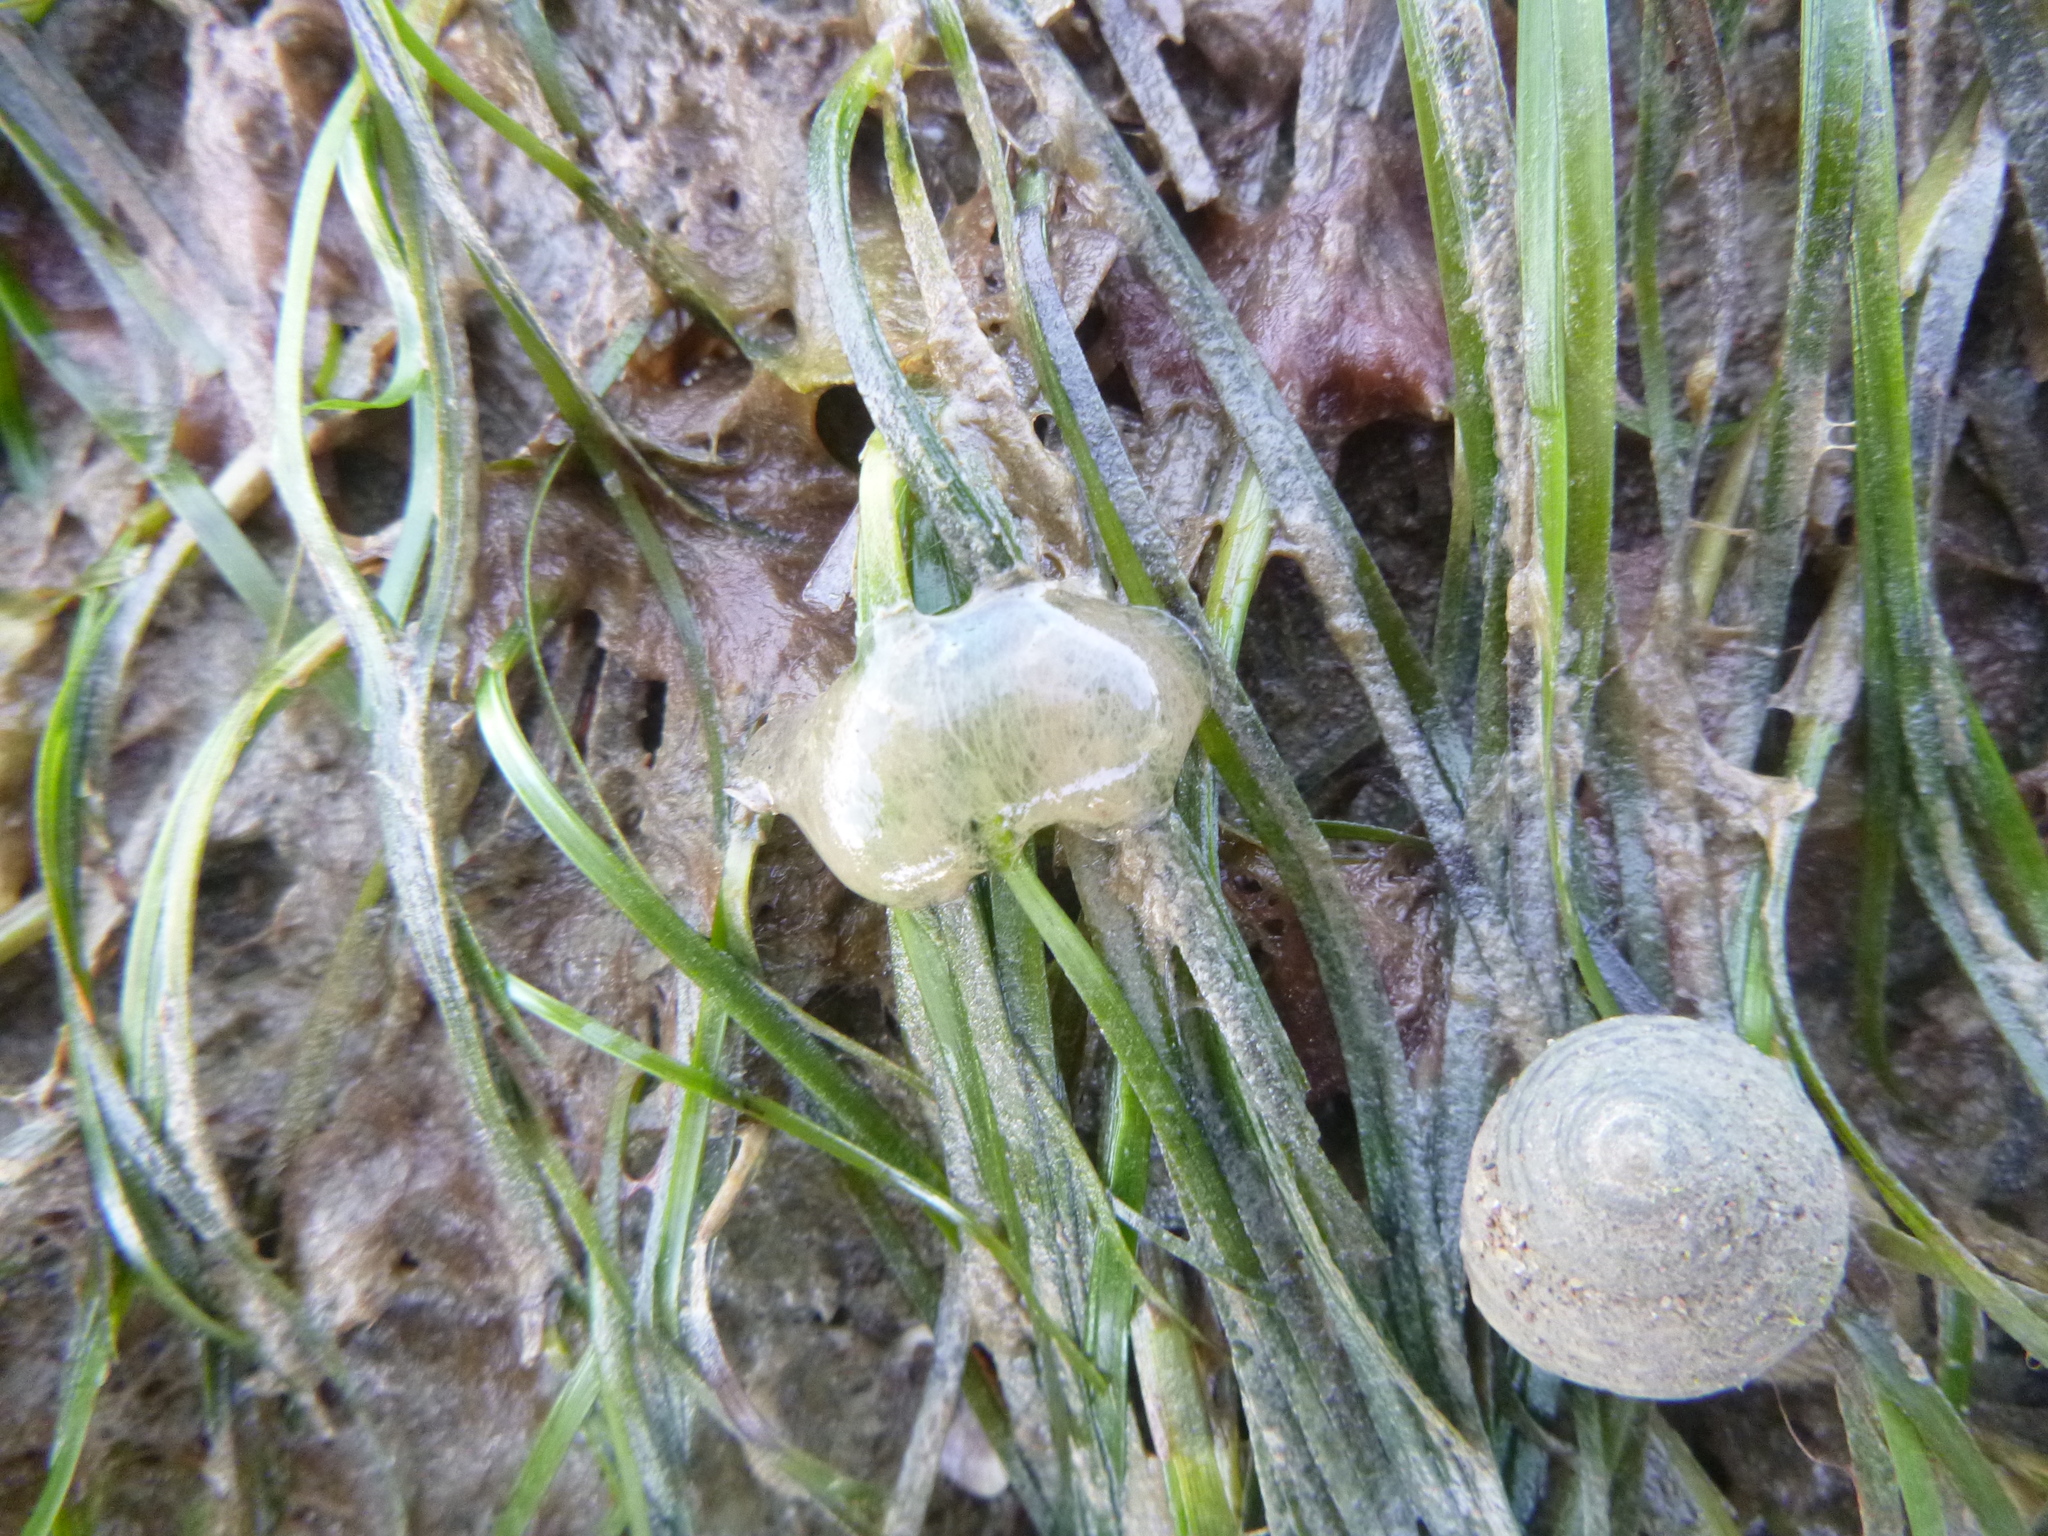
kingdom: Animalia
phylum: Mollusca
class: Gastropoda
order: Cephalaspidea
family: Haminoeidae
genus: Papawera
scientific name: Papawera zelandiae
